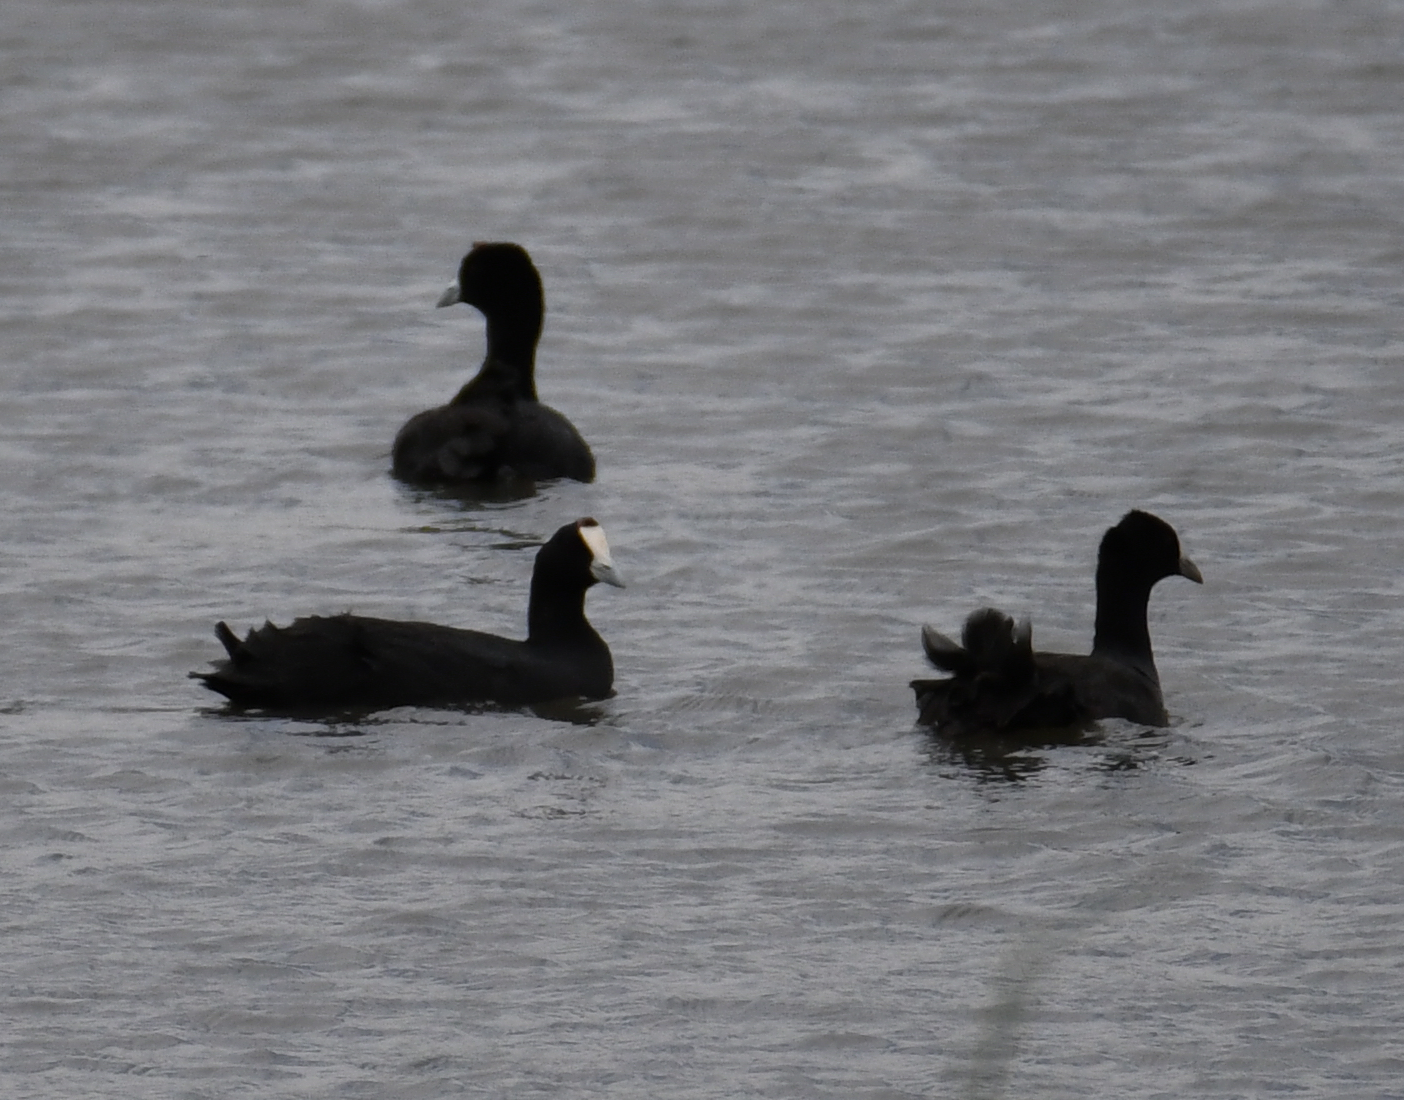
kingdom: Animalia
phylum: Chordata
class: Aves
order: Gruiformes
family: Rallidae
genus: Fulica
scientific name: Fulica cristata
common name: Red-knobbed coot
